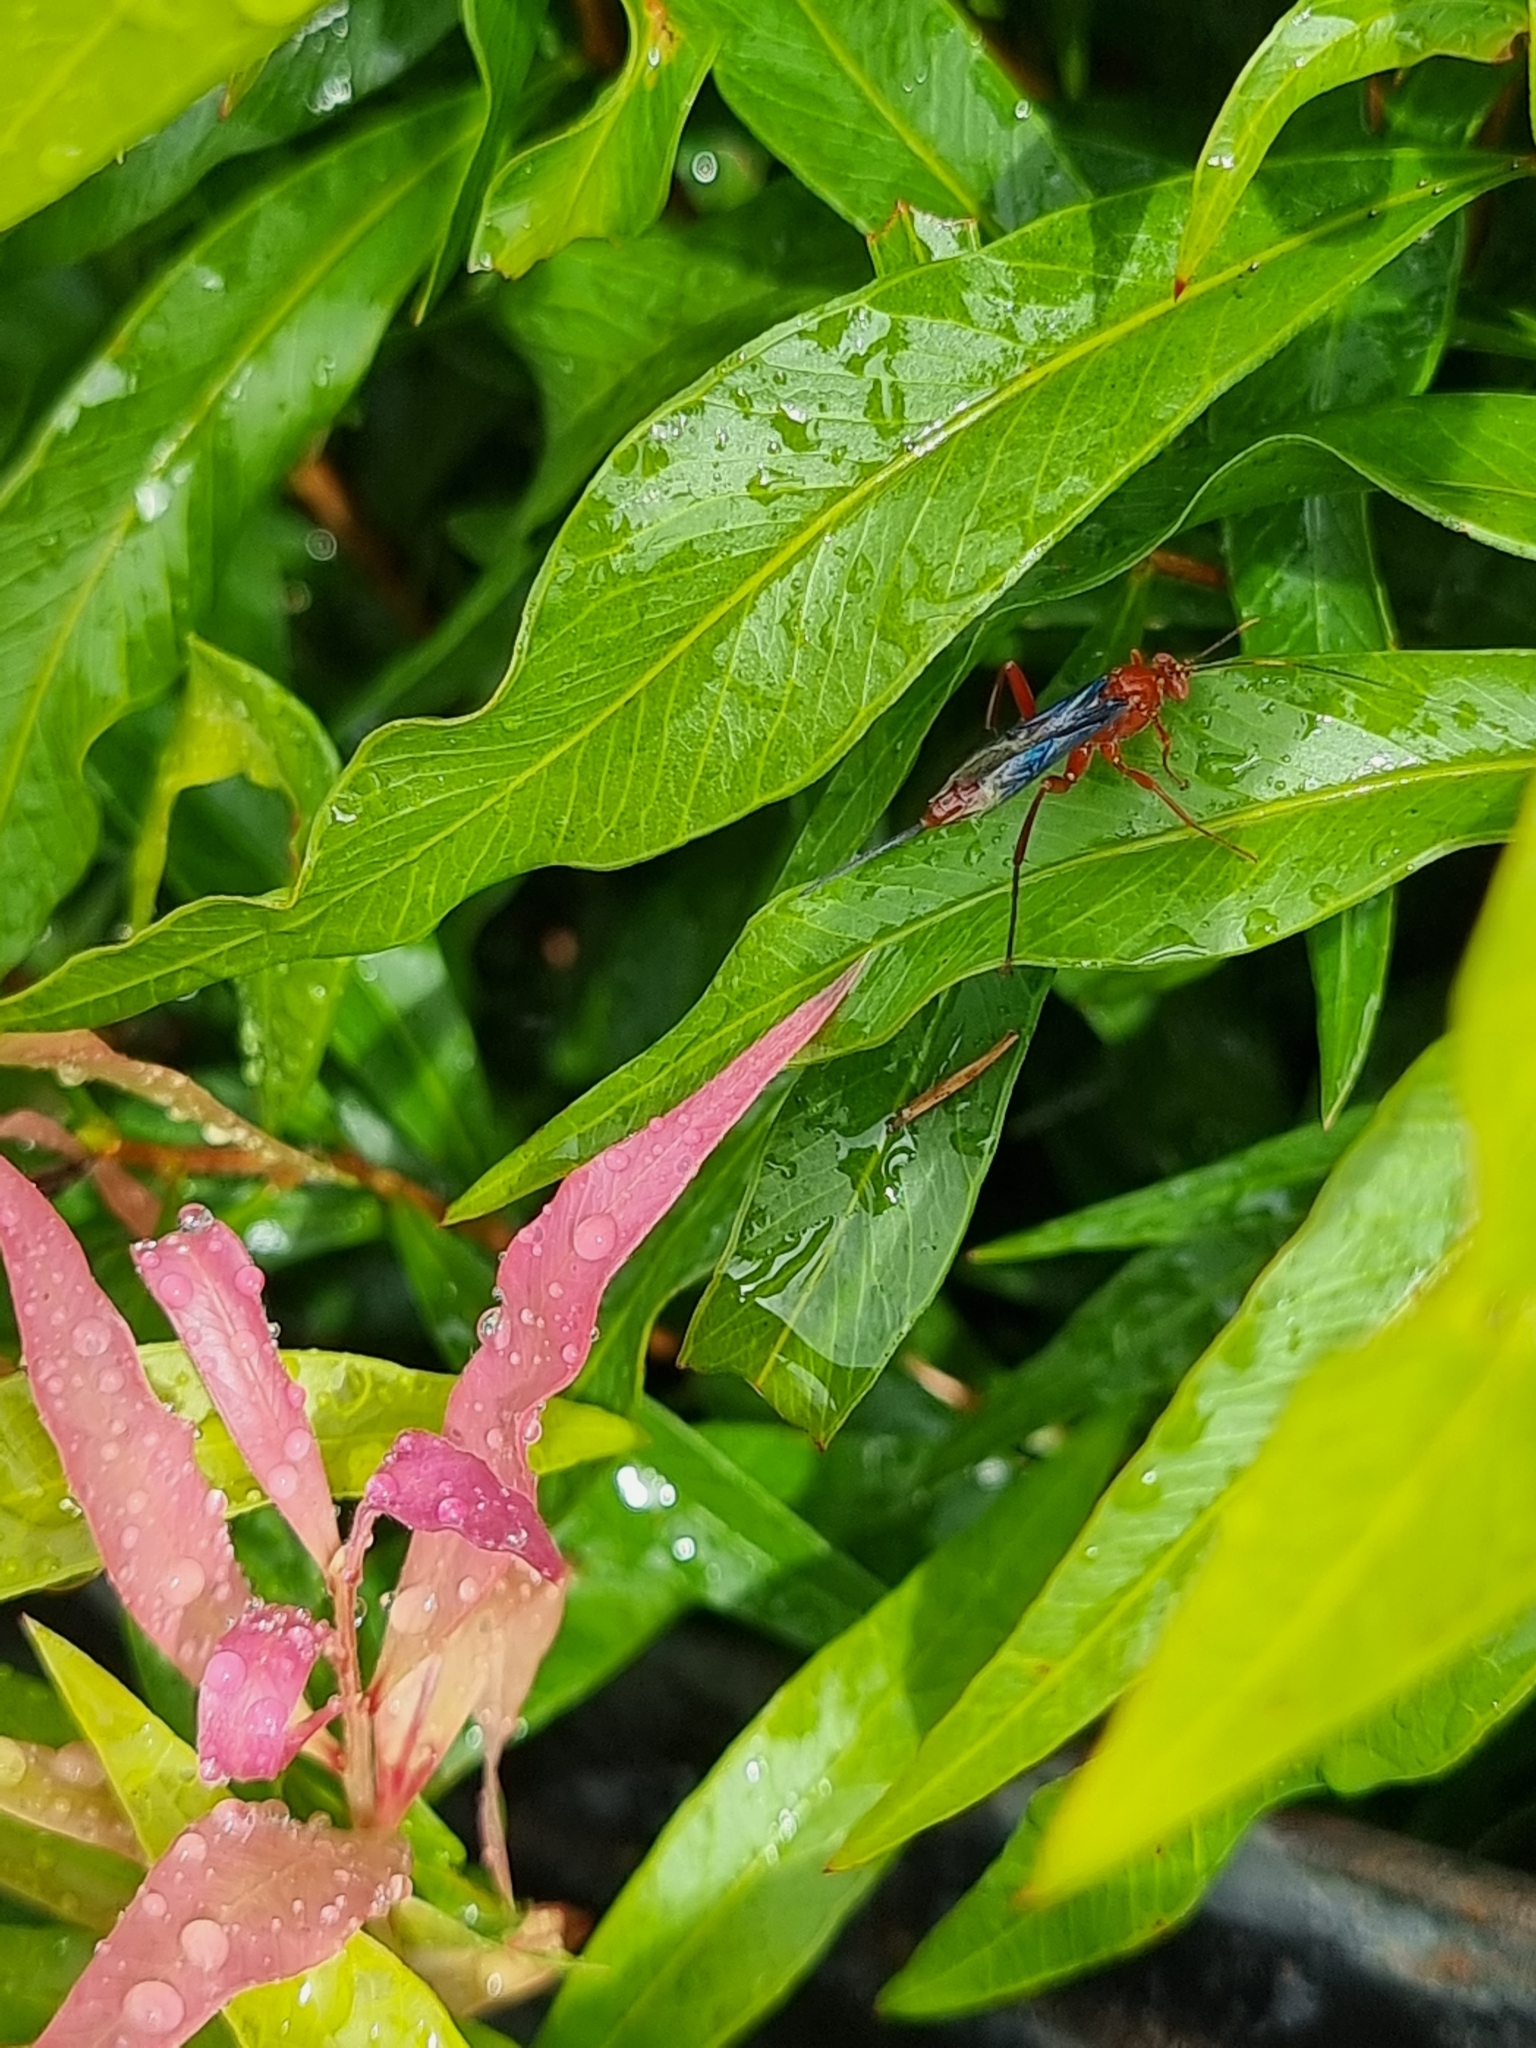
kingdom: Animalia
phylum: Arthropoda
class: Insecta
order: Hymenoptera
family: Ichneumonidae
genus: Lissopimpla
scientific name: Lissopimpla excelsa
